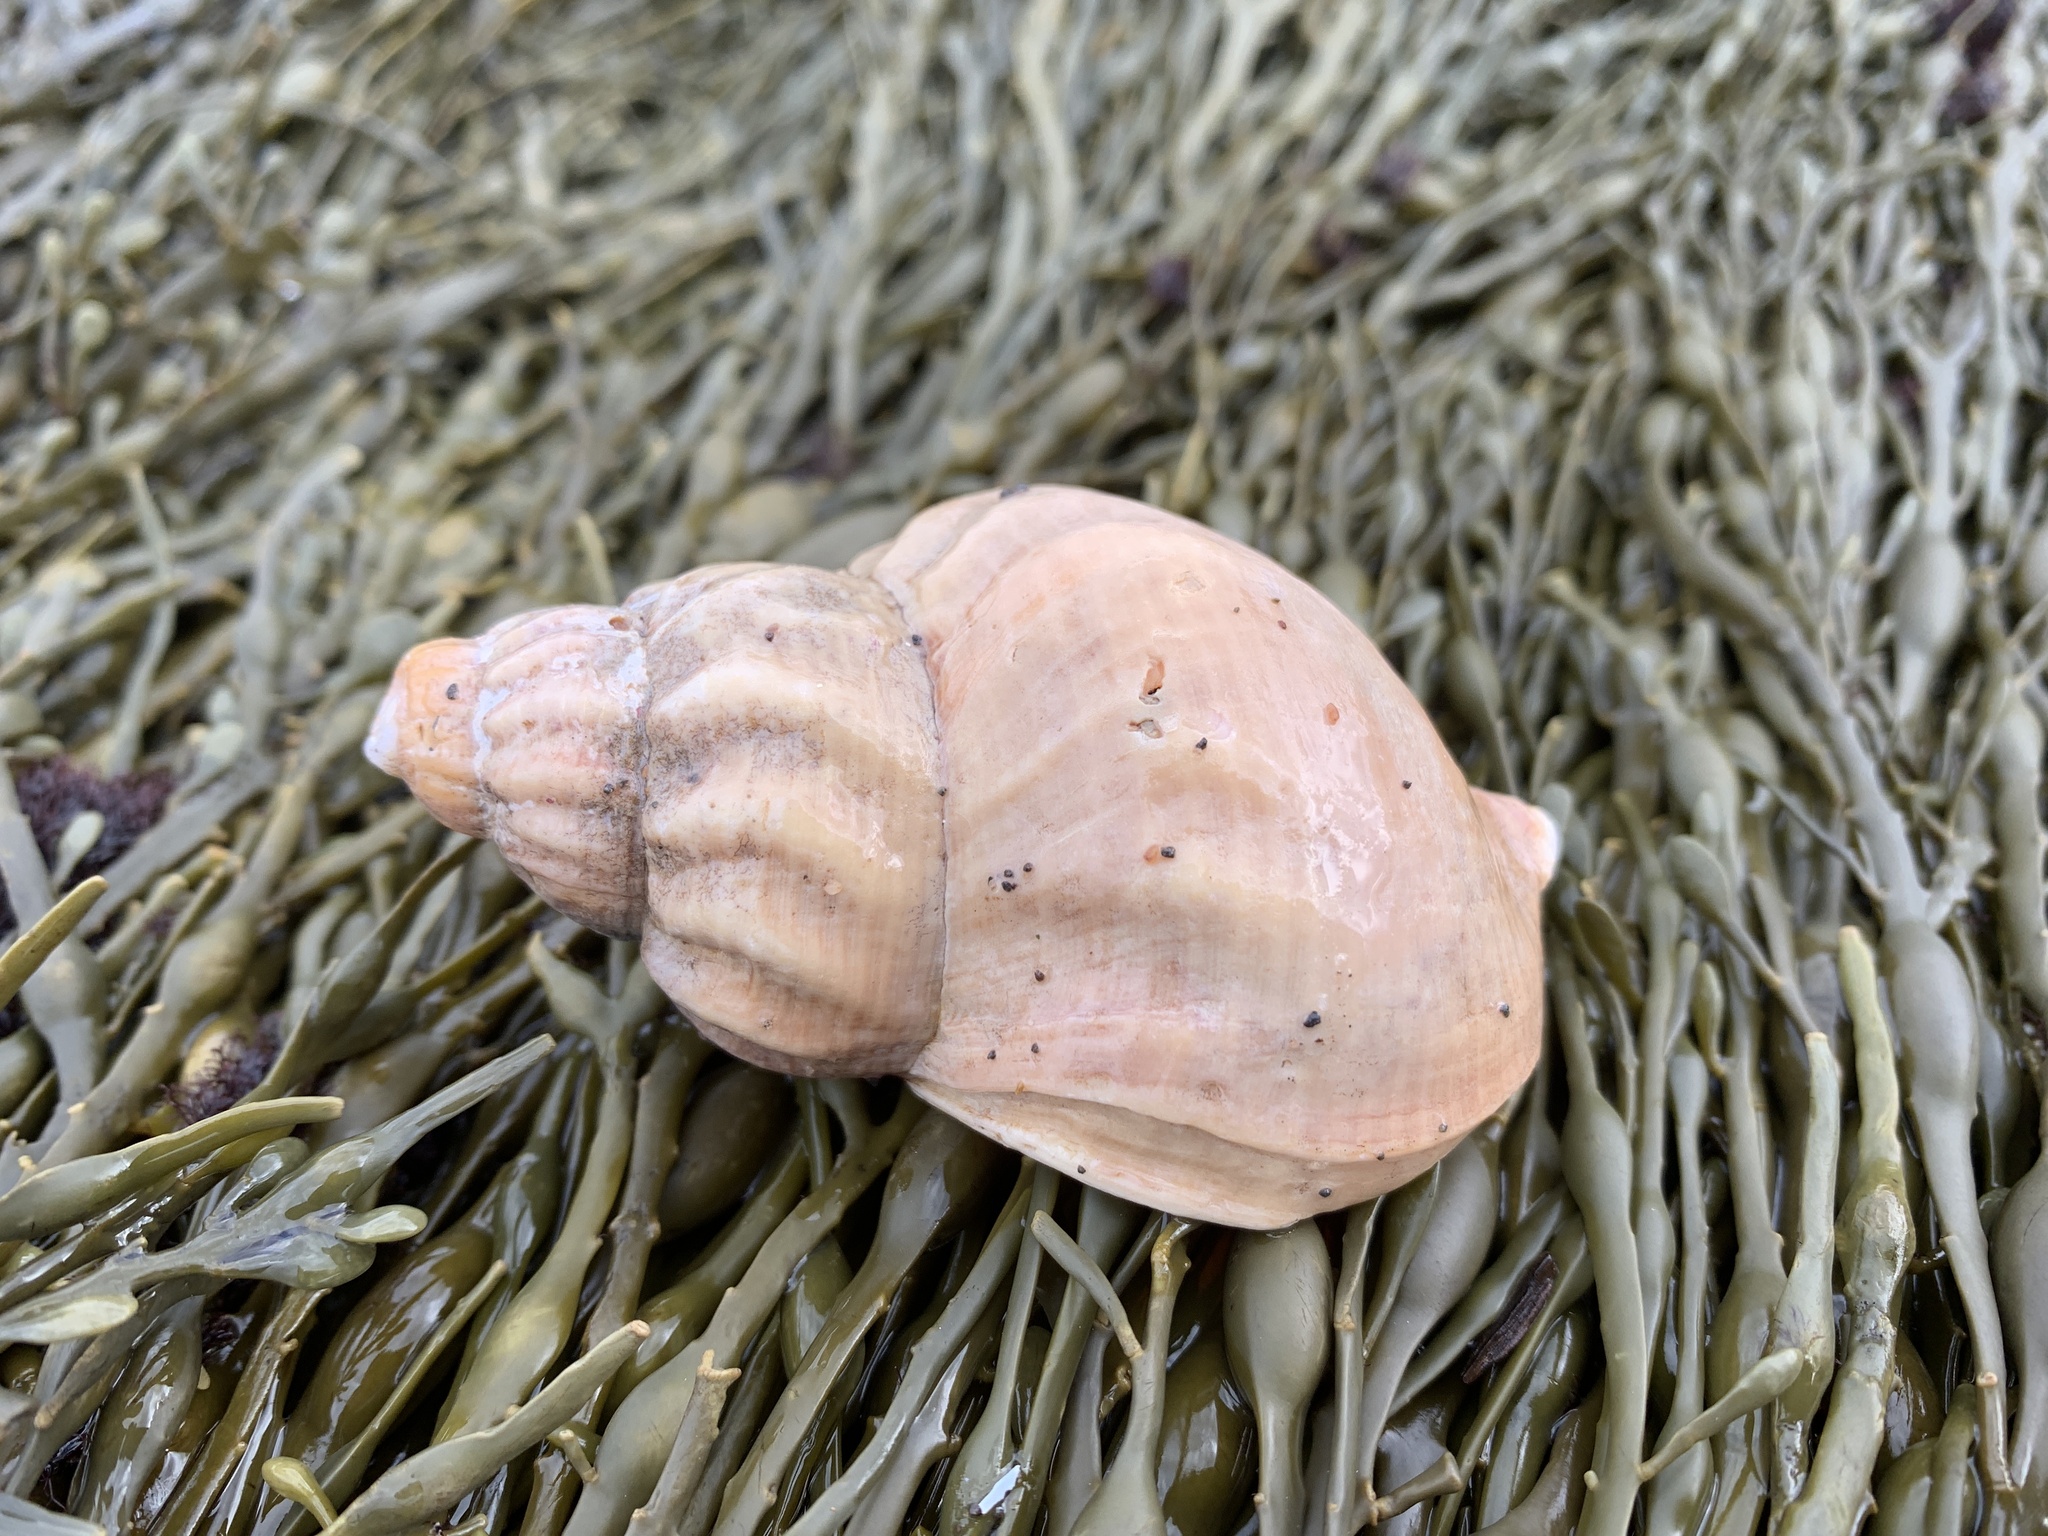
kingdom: Animalia
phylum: Mollusca
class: Gastropoda
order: Neogastropoda
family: Buccinidae
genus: Buccinum
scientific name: Buccinum undatum
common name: Common whelk
